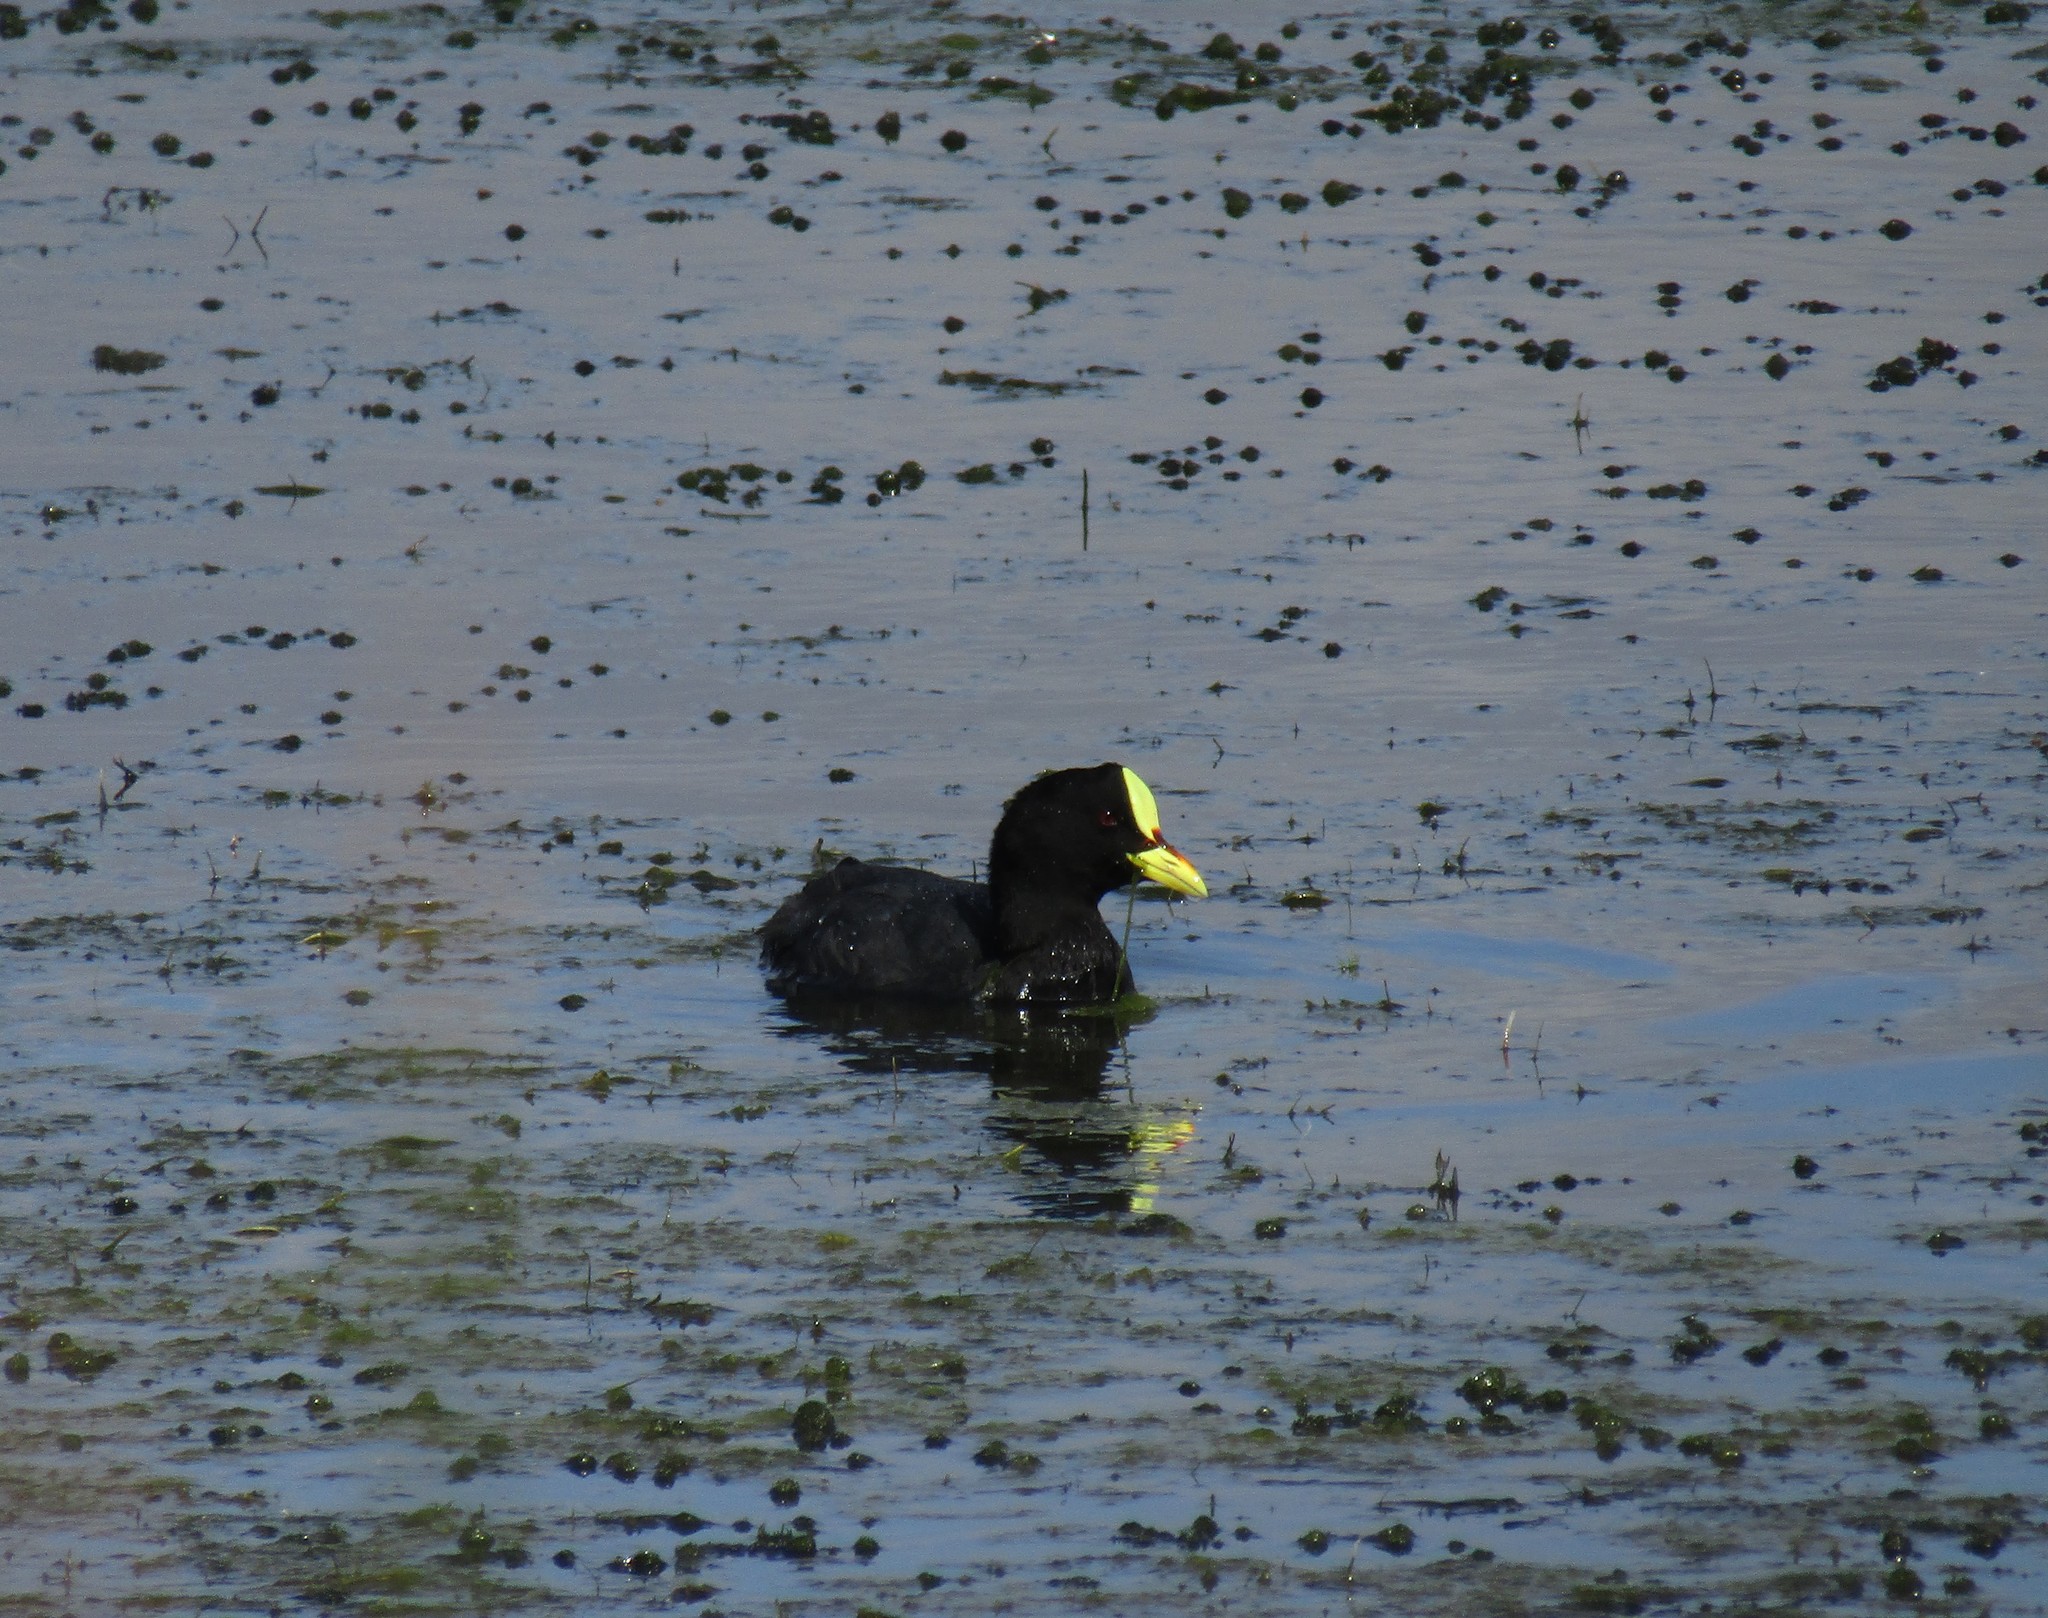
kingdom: Animalia
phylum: Chordata
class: Aves
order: Gruiformes
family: Rallidae
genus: Fulica
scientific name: Fulica armillata
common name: Red-gartered coot
